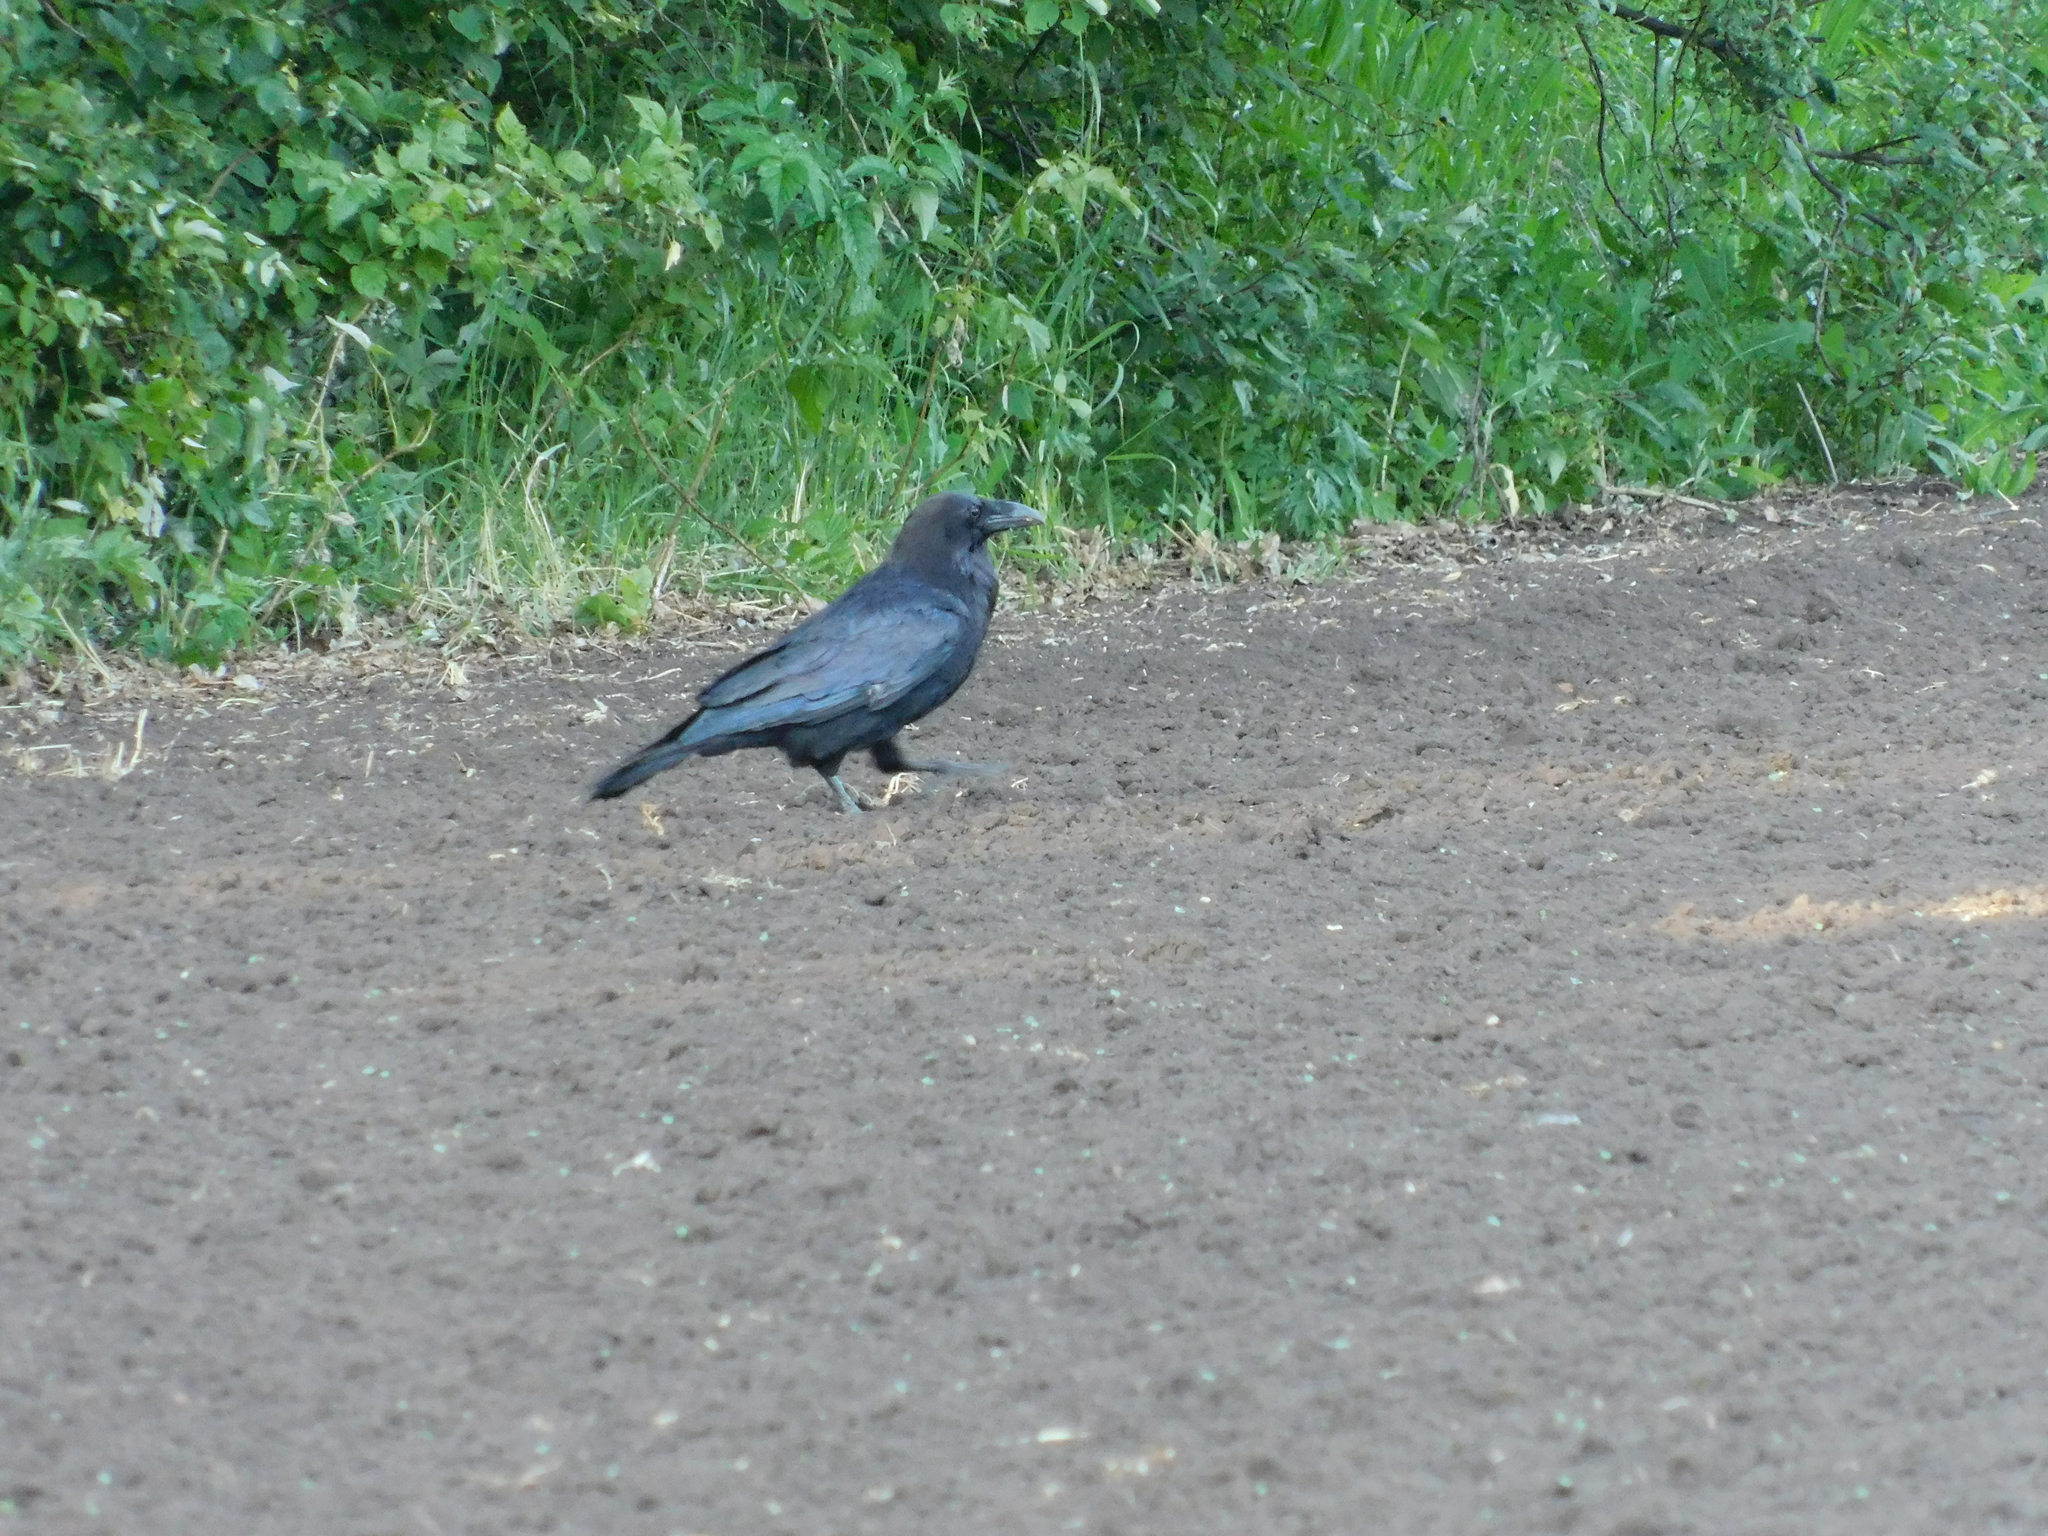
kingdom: Animalia
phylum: Chordata
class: Aves
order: Passeriformes
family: Corvidae
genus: Corvus
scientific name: Corvus corax
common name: Common raven
